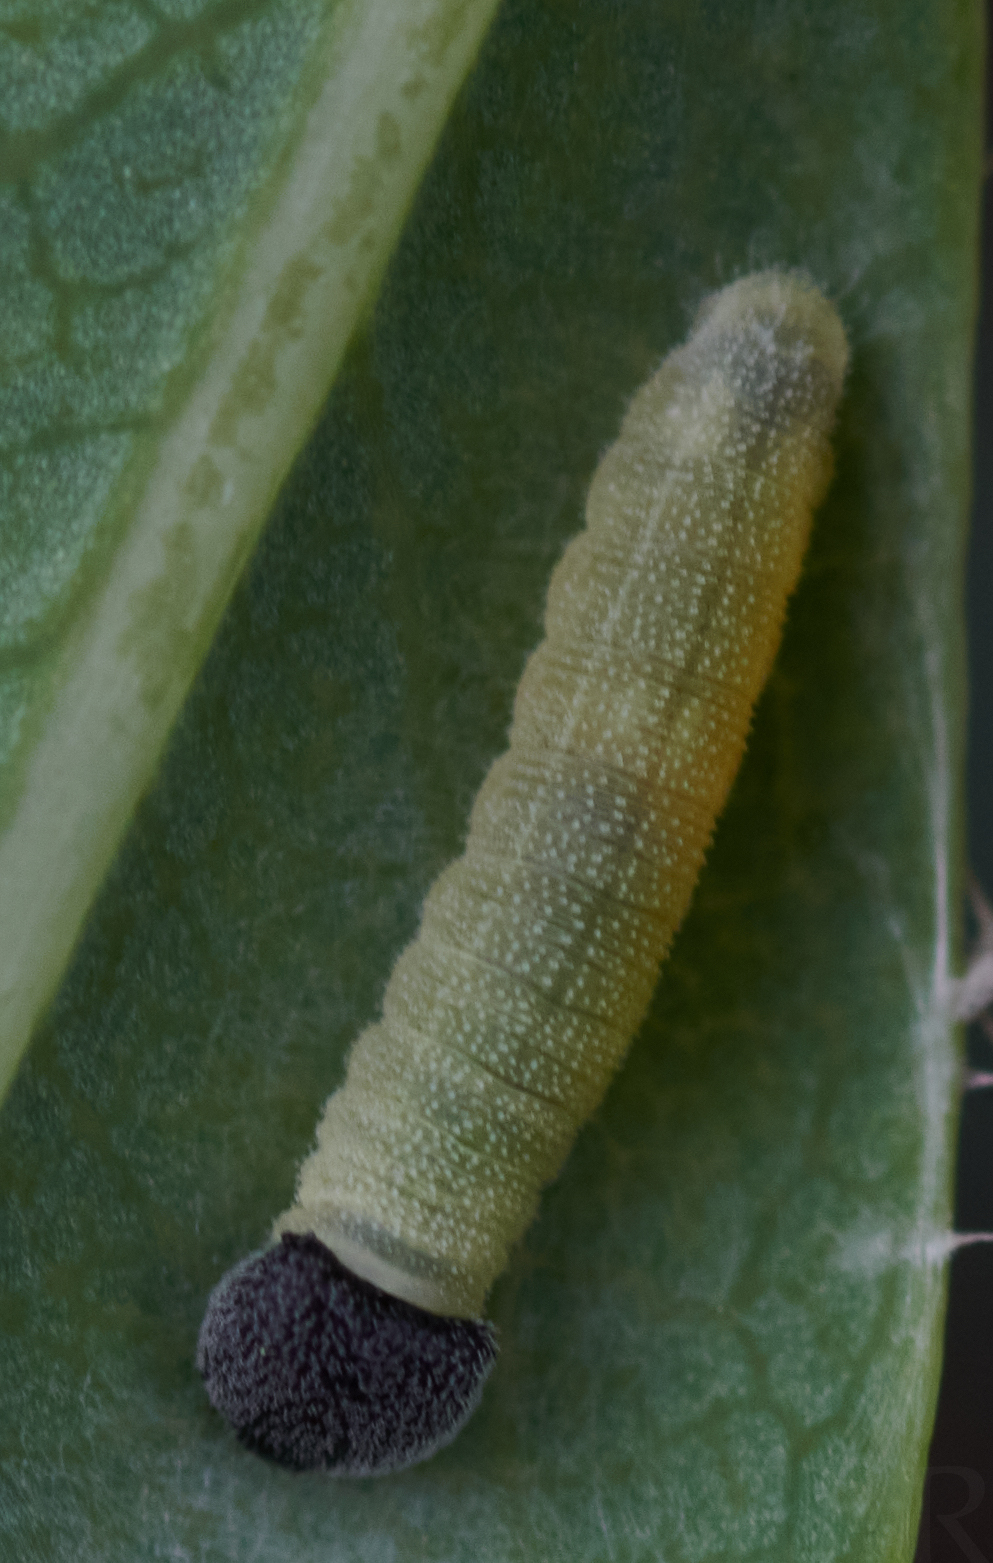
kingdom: Animalia
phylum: Arthropoda
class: Insecta
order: Lepidoptera
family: Hesperiidae
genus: Erynnis
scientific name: Erynnis baptisiae
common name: Wild indigo duskywing
